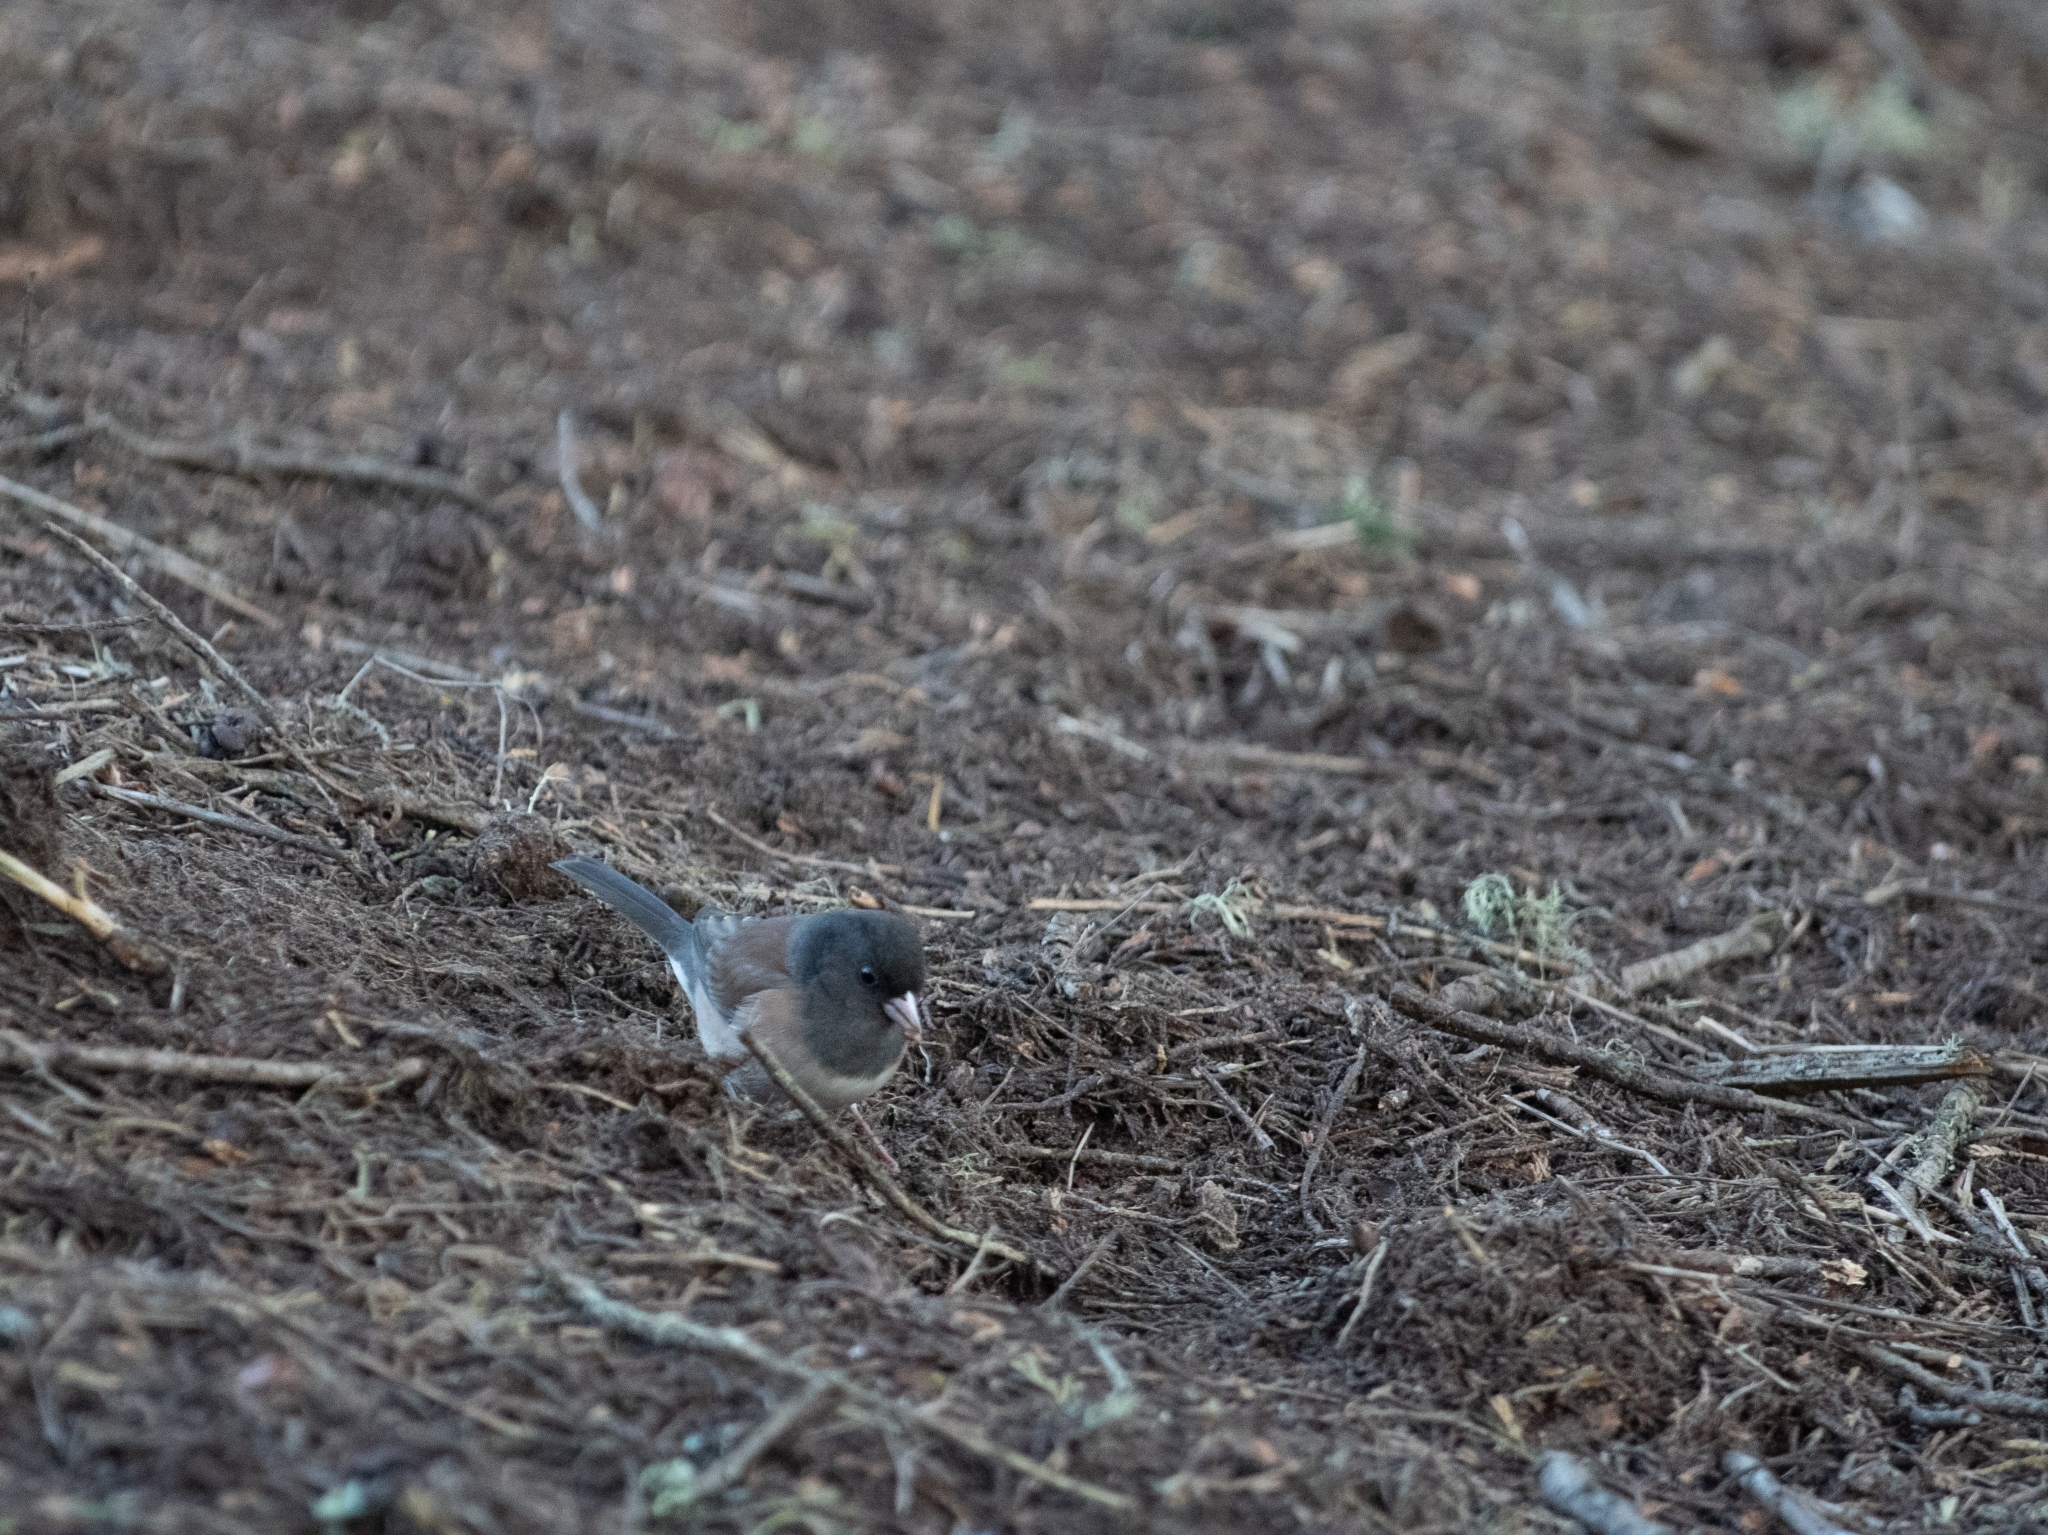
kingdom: Animalia
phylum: Chordata
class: Aves
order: Passeriformes
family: Passerellidae
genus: Junco
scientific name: Junco hyemalis
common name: Dark-eyed junco
